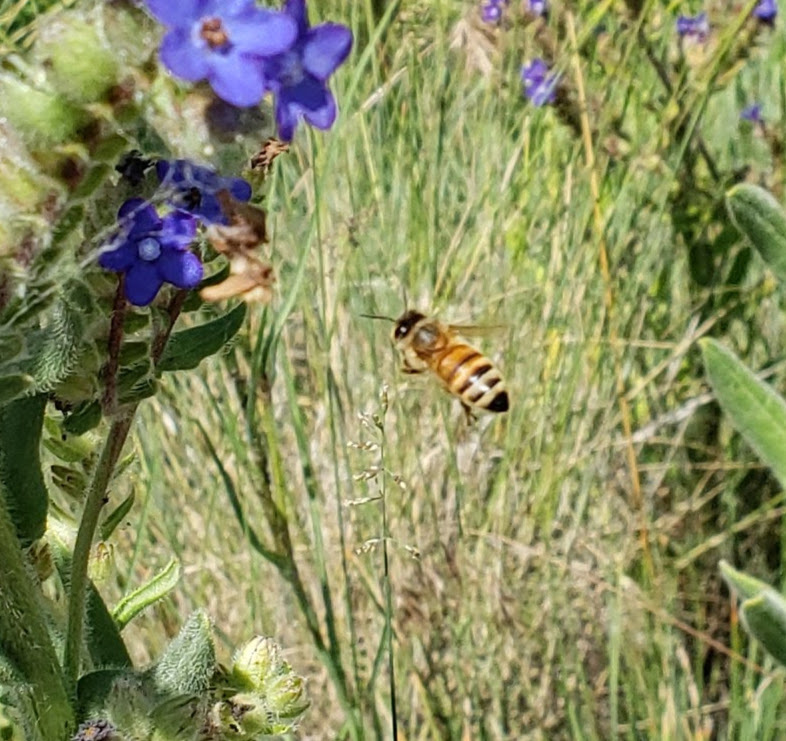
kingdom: Animalia
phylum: Arthropoda
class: Insecta
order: Hymenoptera
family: Apidae
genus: Apis
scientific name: Apis mellifera
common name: Honey bee
